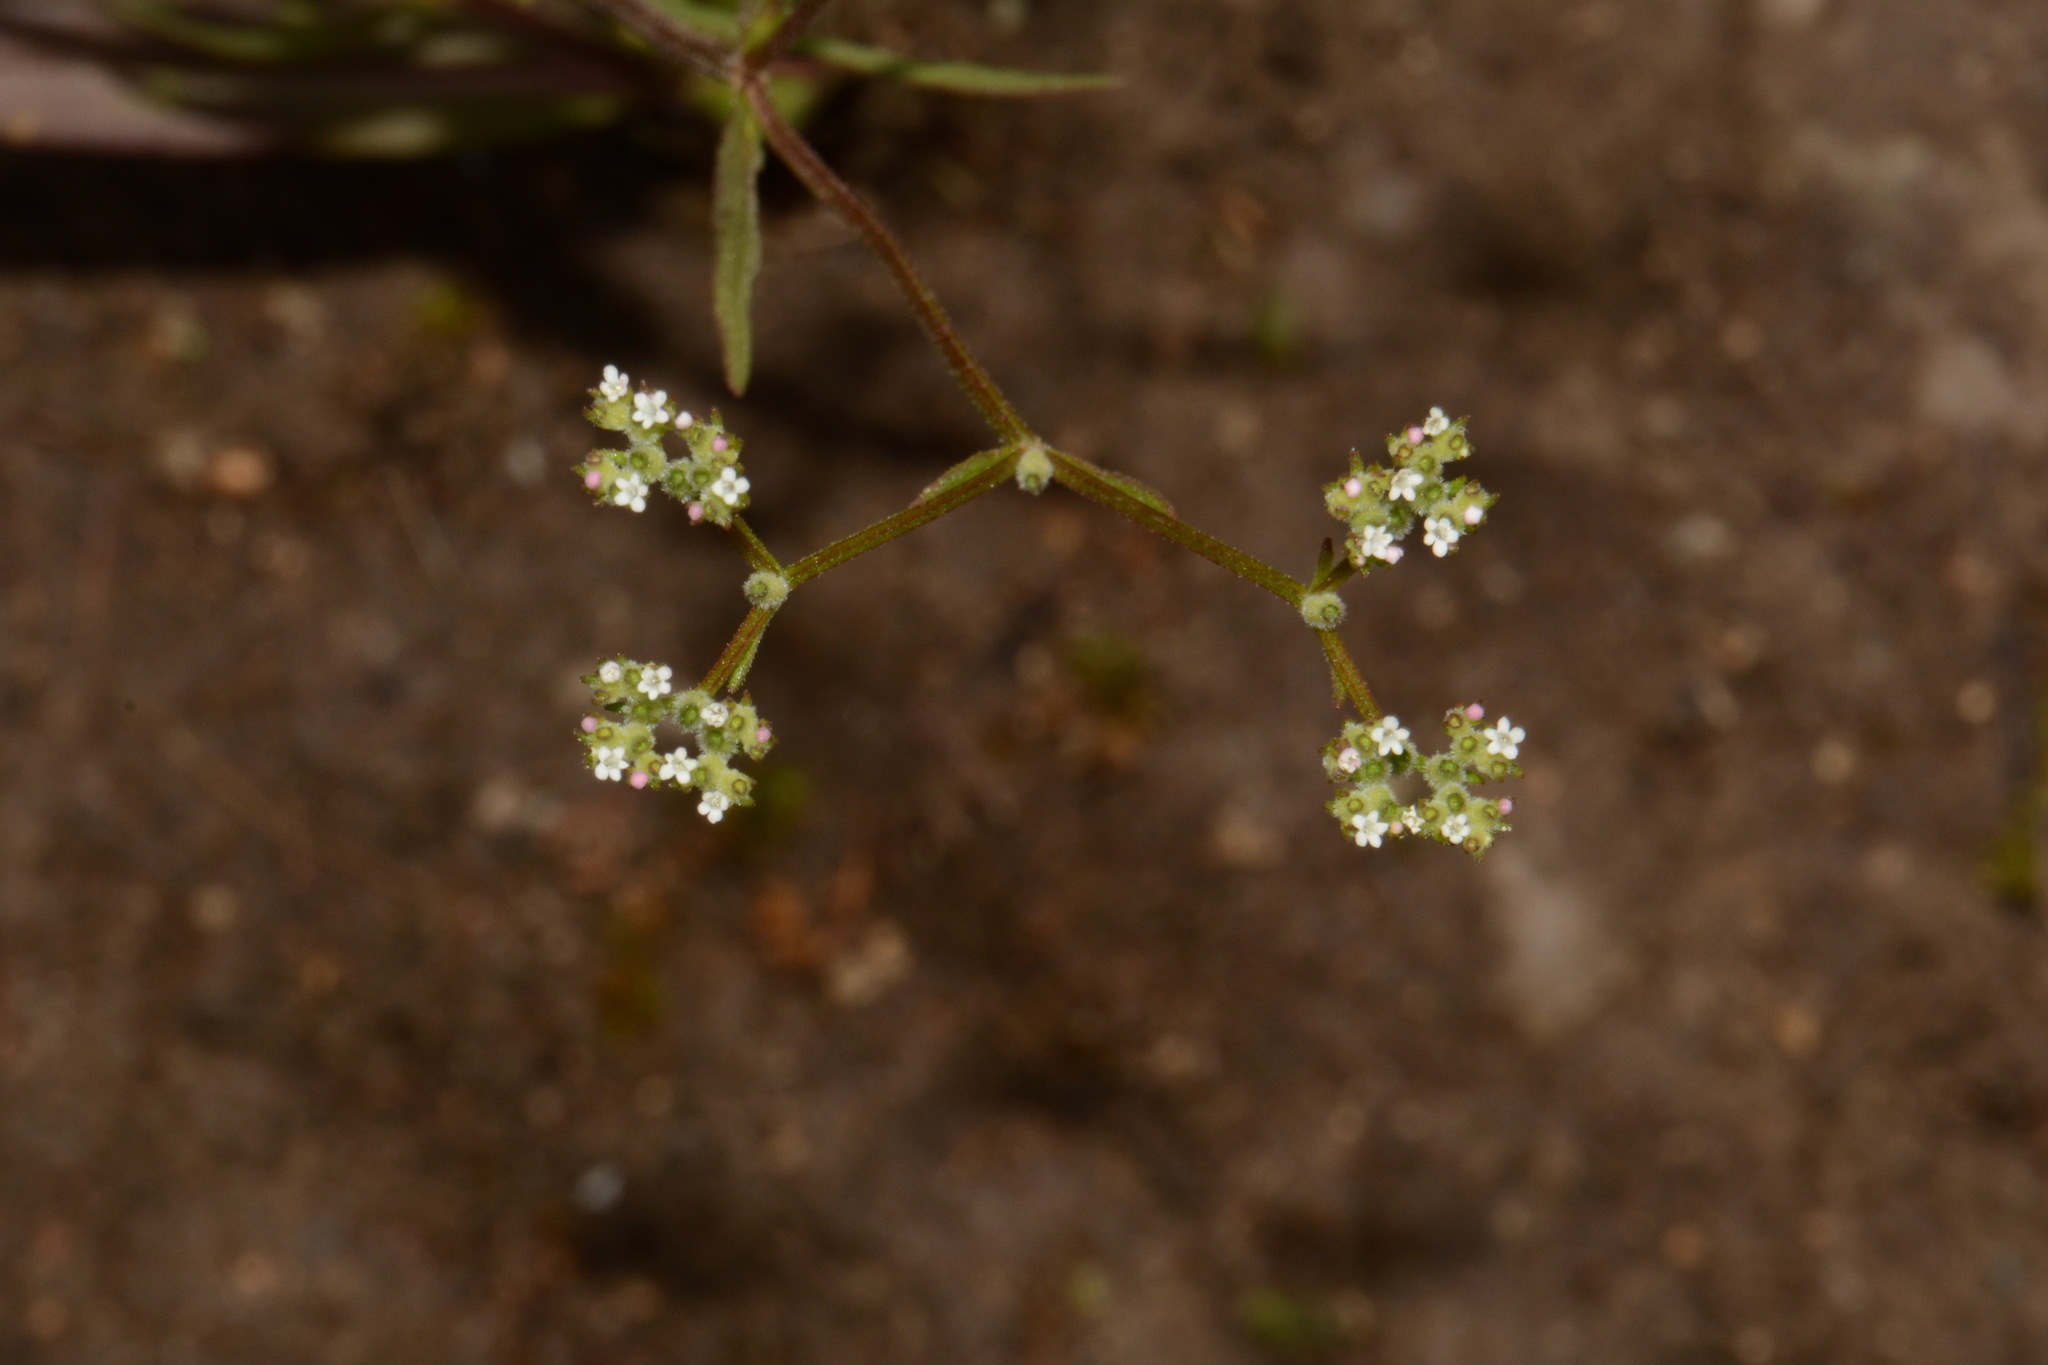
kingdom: Plantae
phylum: Tracheophyta
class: Magnoliopsida
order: Dipsacales
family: Caprifoliaceae
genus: Valerianella
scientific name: Valerianella dentata
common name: Narrow-fruited cornsalad
